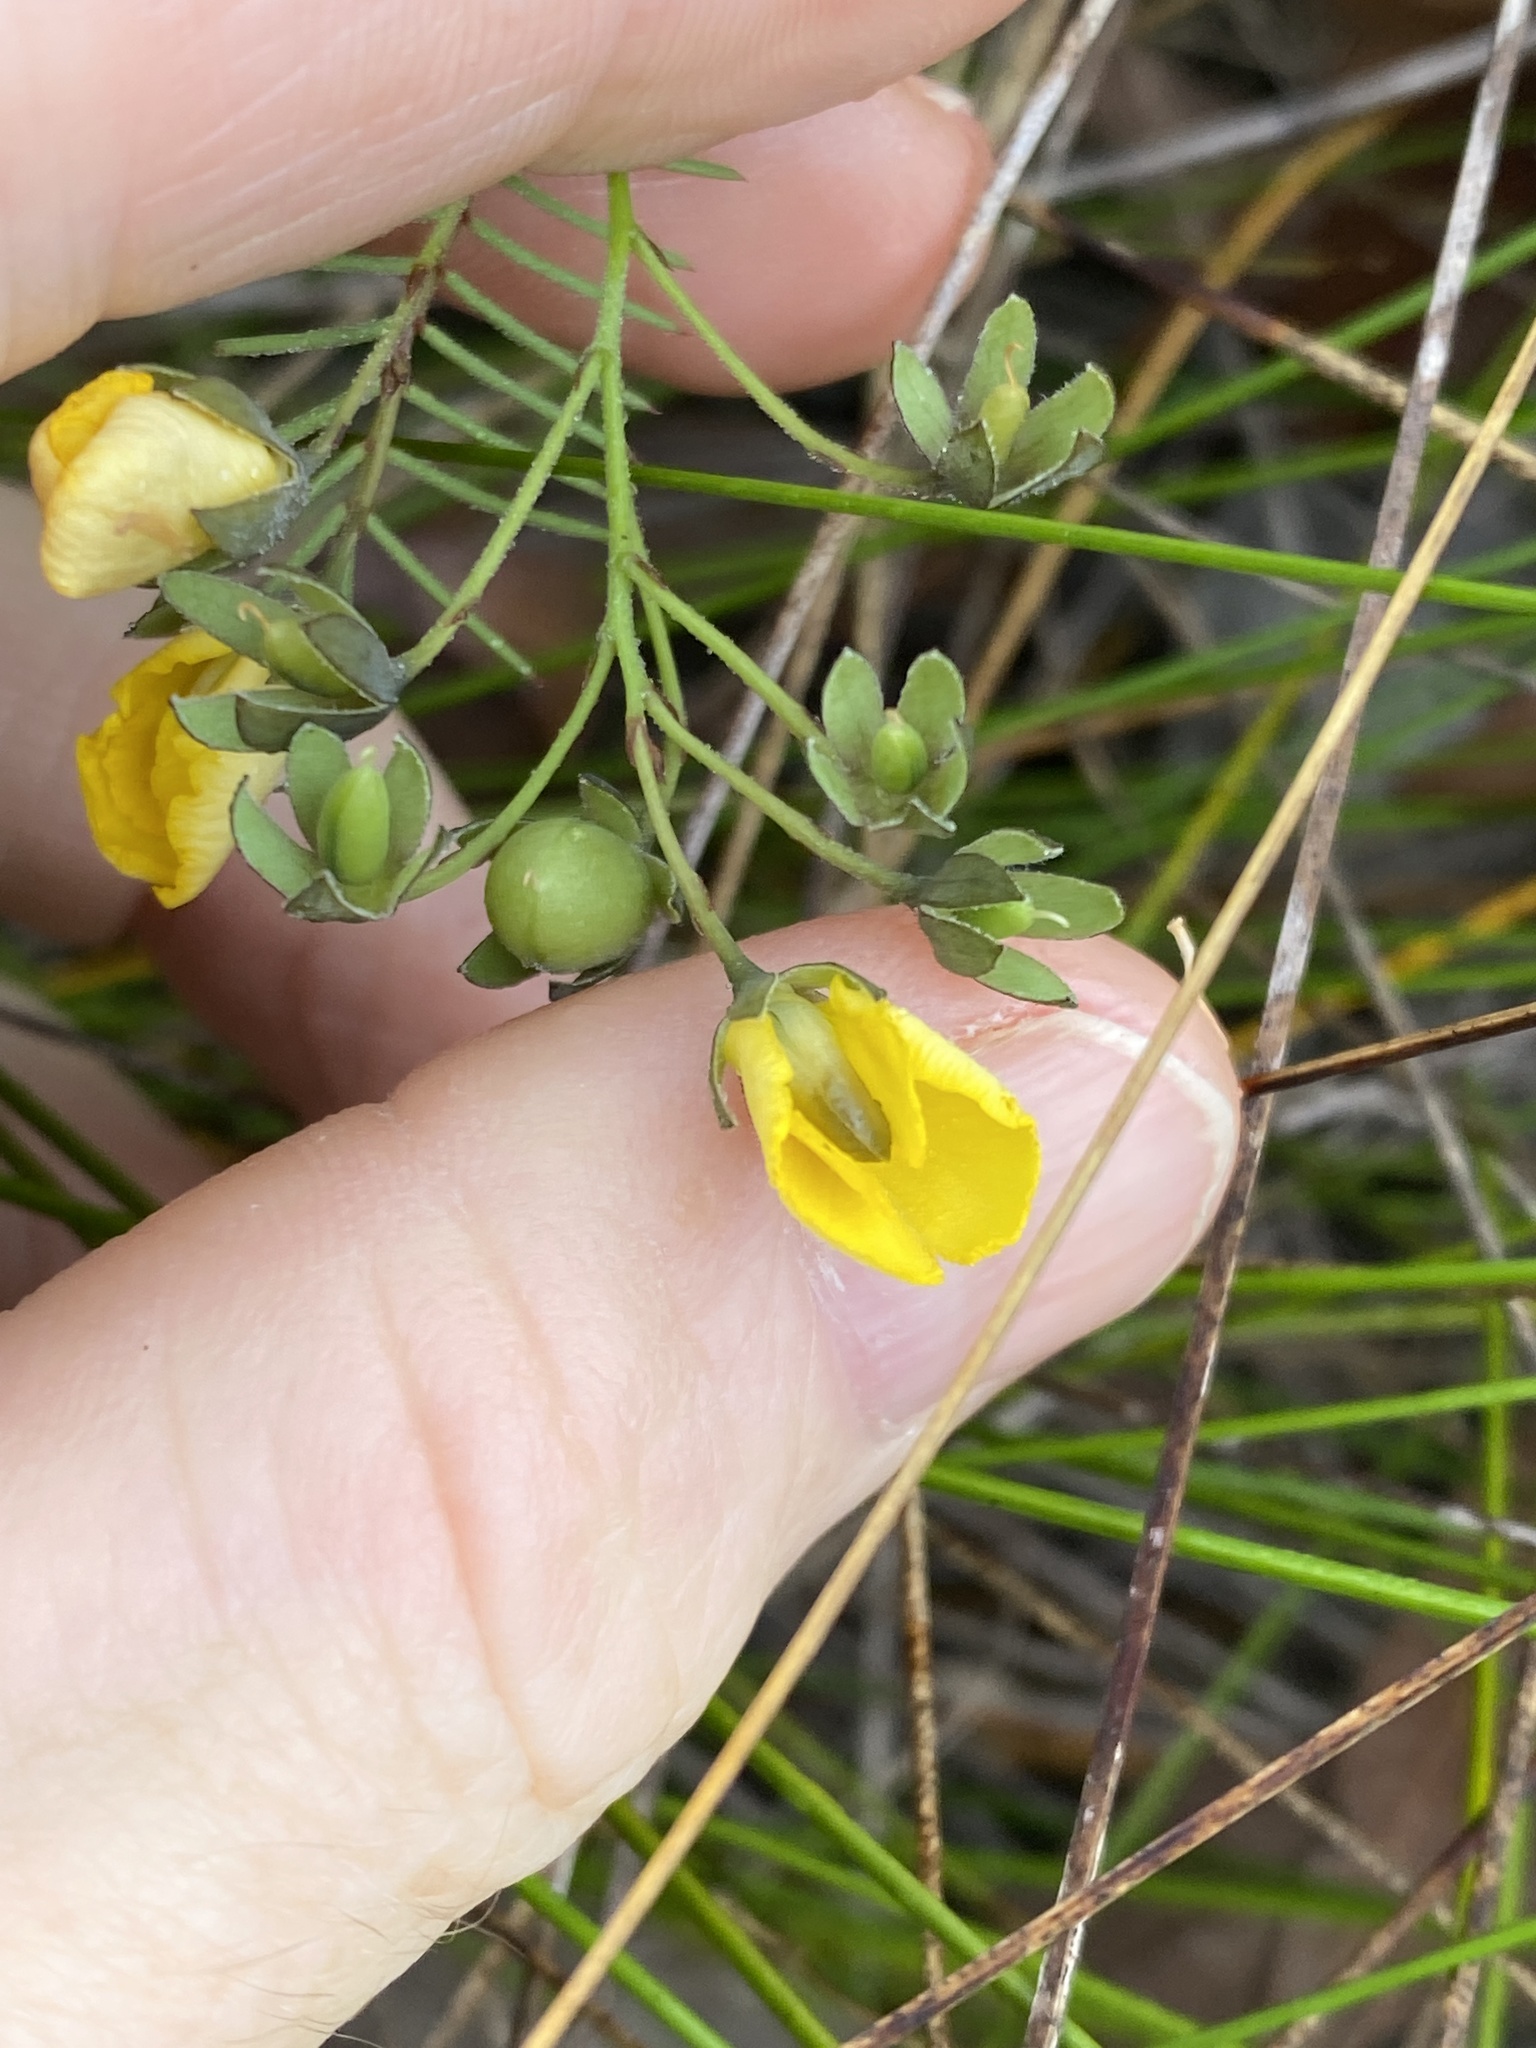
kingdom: Plantae
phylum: Tracheophyta
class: Magnoliopsida
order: Fabales
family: Fabaceae
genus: Gompholobium
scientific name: Gompholobium pinnatum
